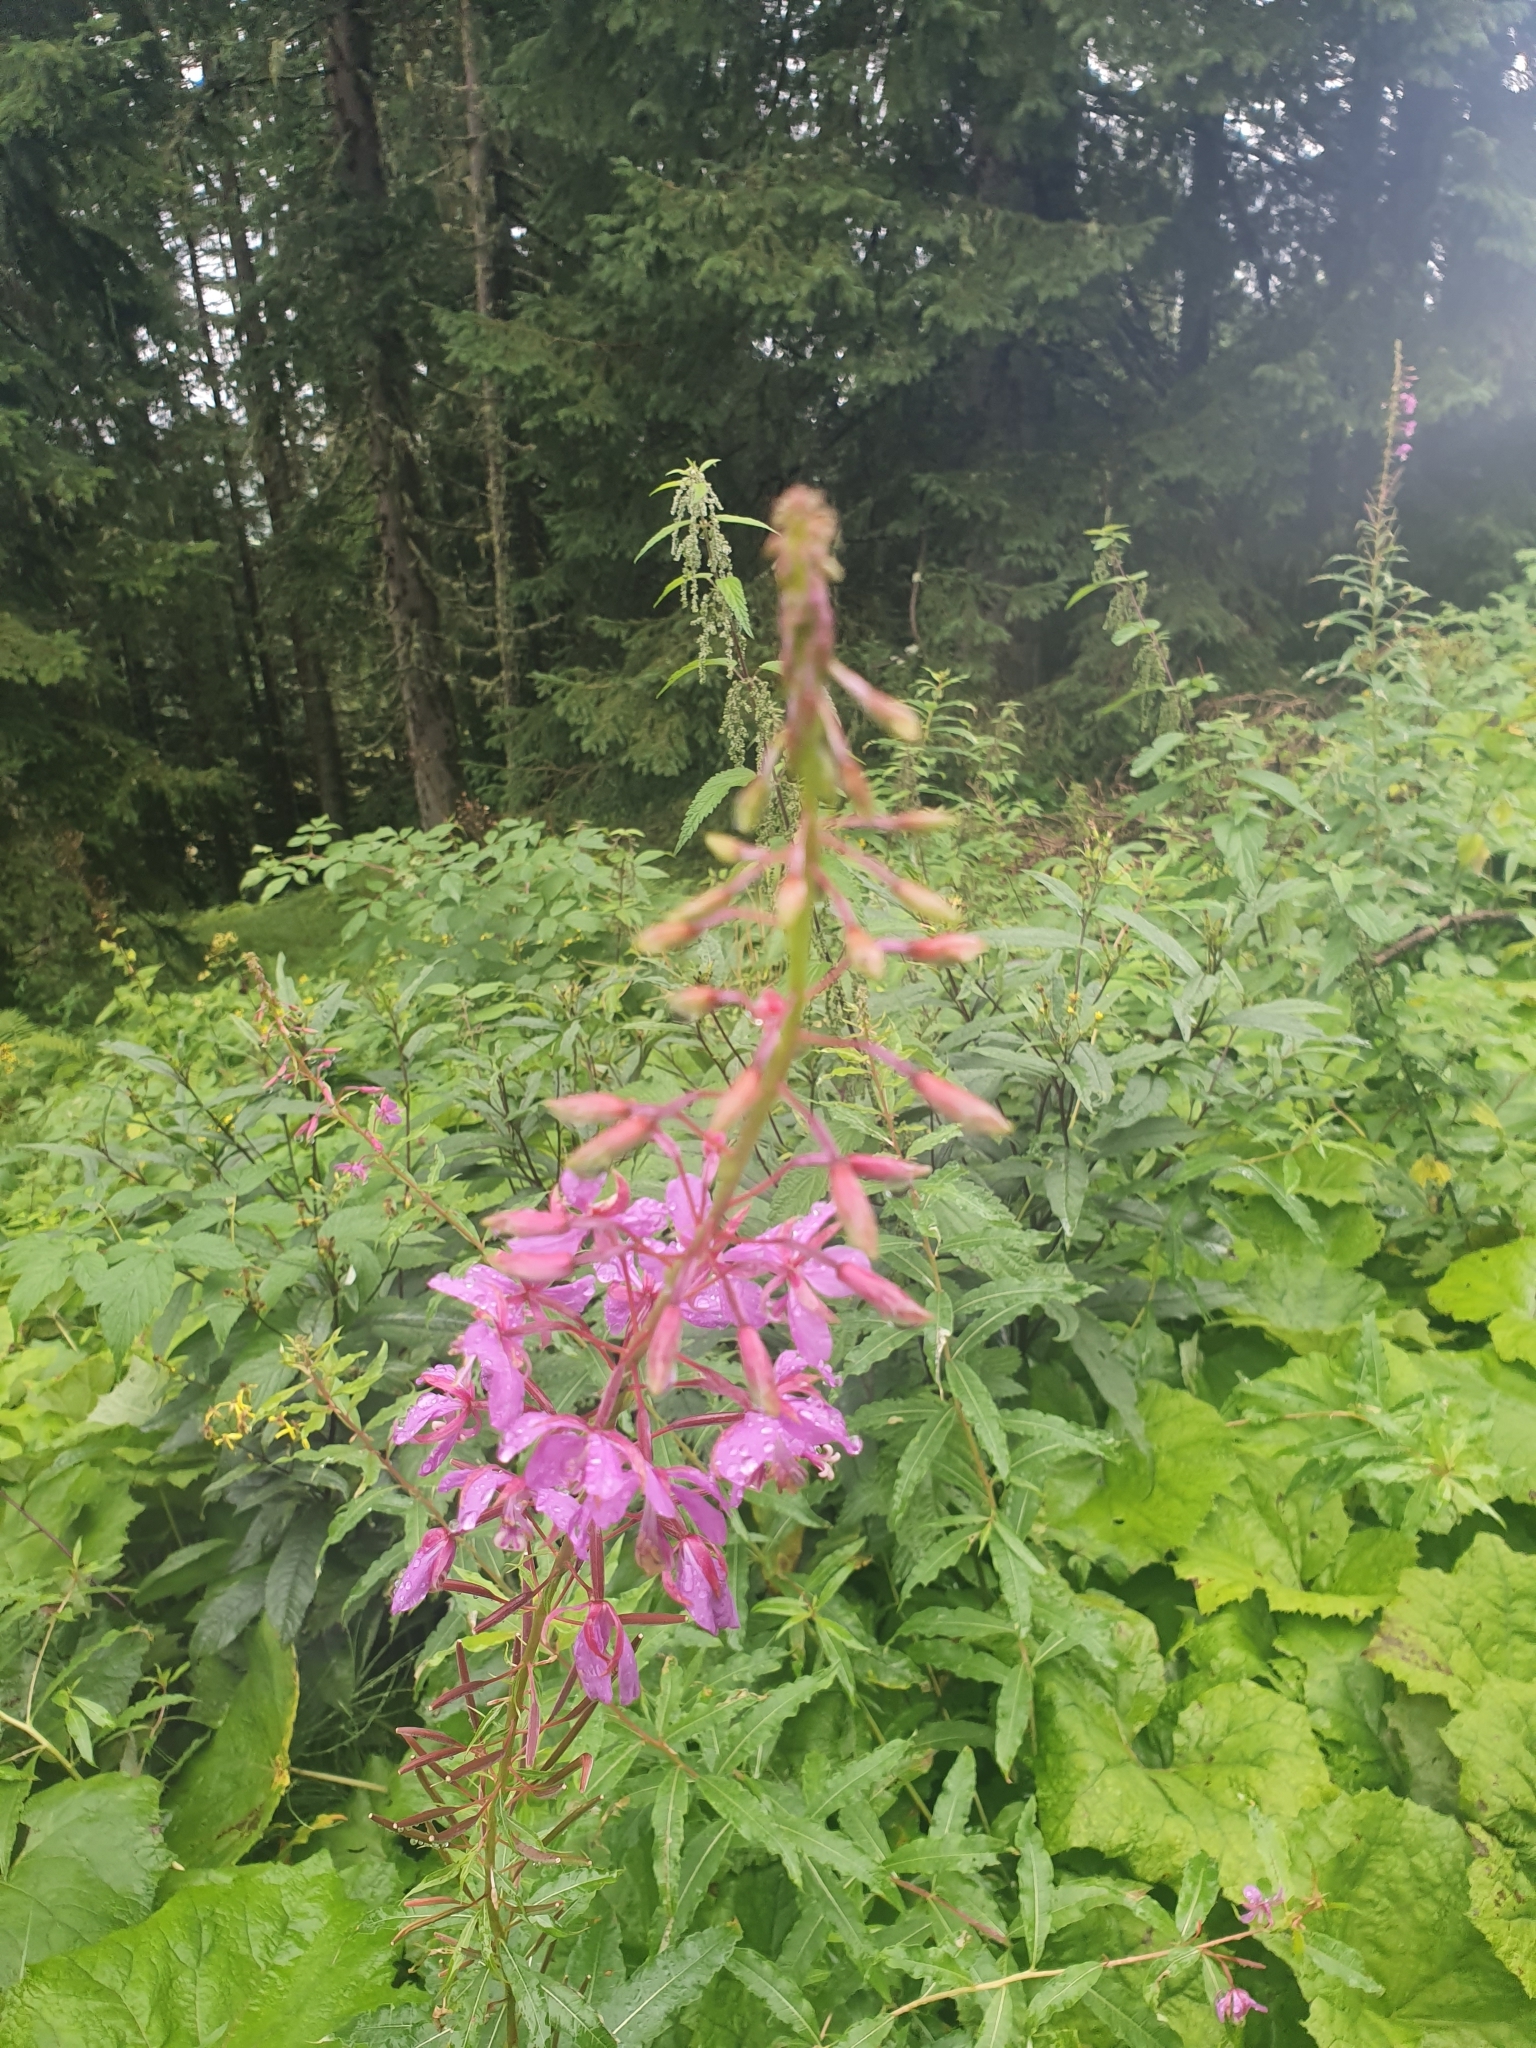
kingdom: Plantae
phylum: Tracheophyta
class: Magnoliopsida
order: Myrtales
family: Onagraceae
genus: Chamaenerion
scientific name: Chamaenerion angustifolium
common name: Fireweed
